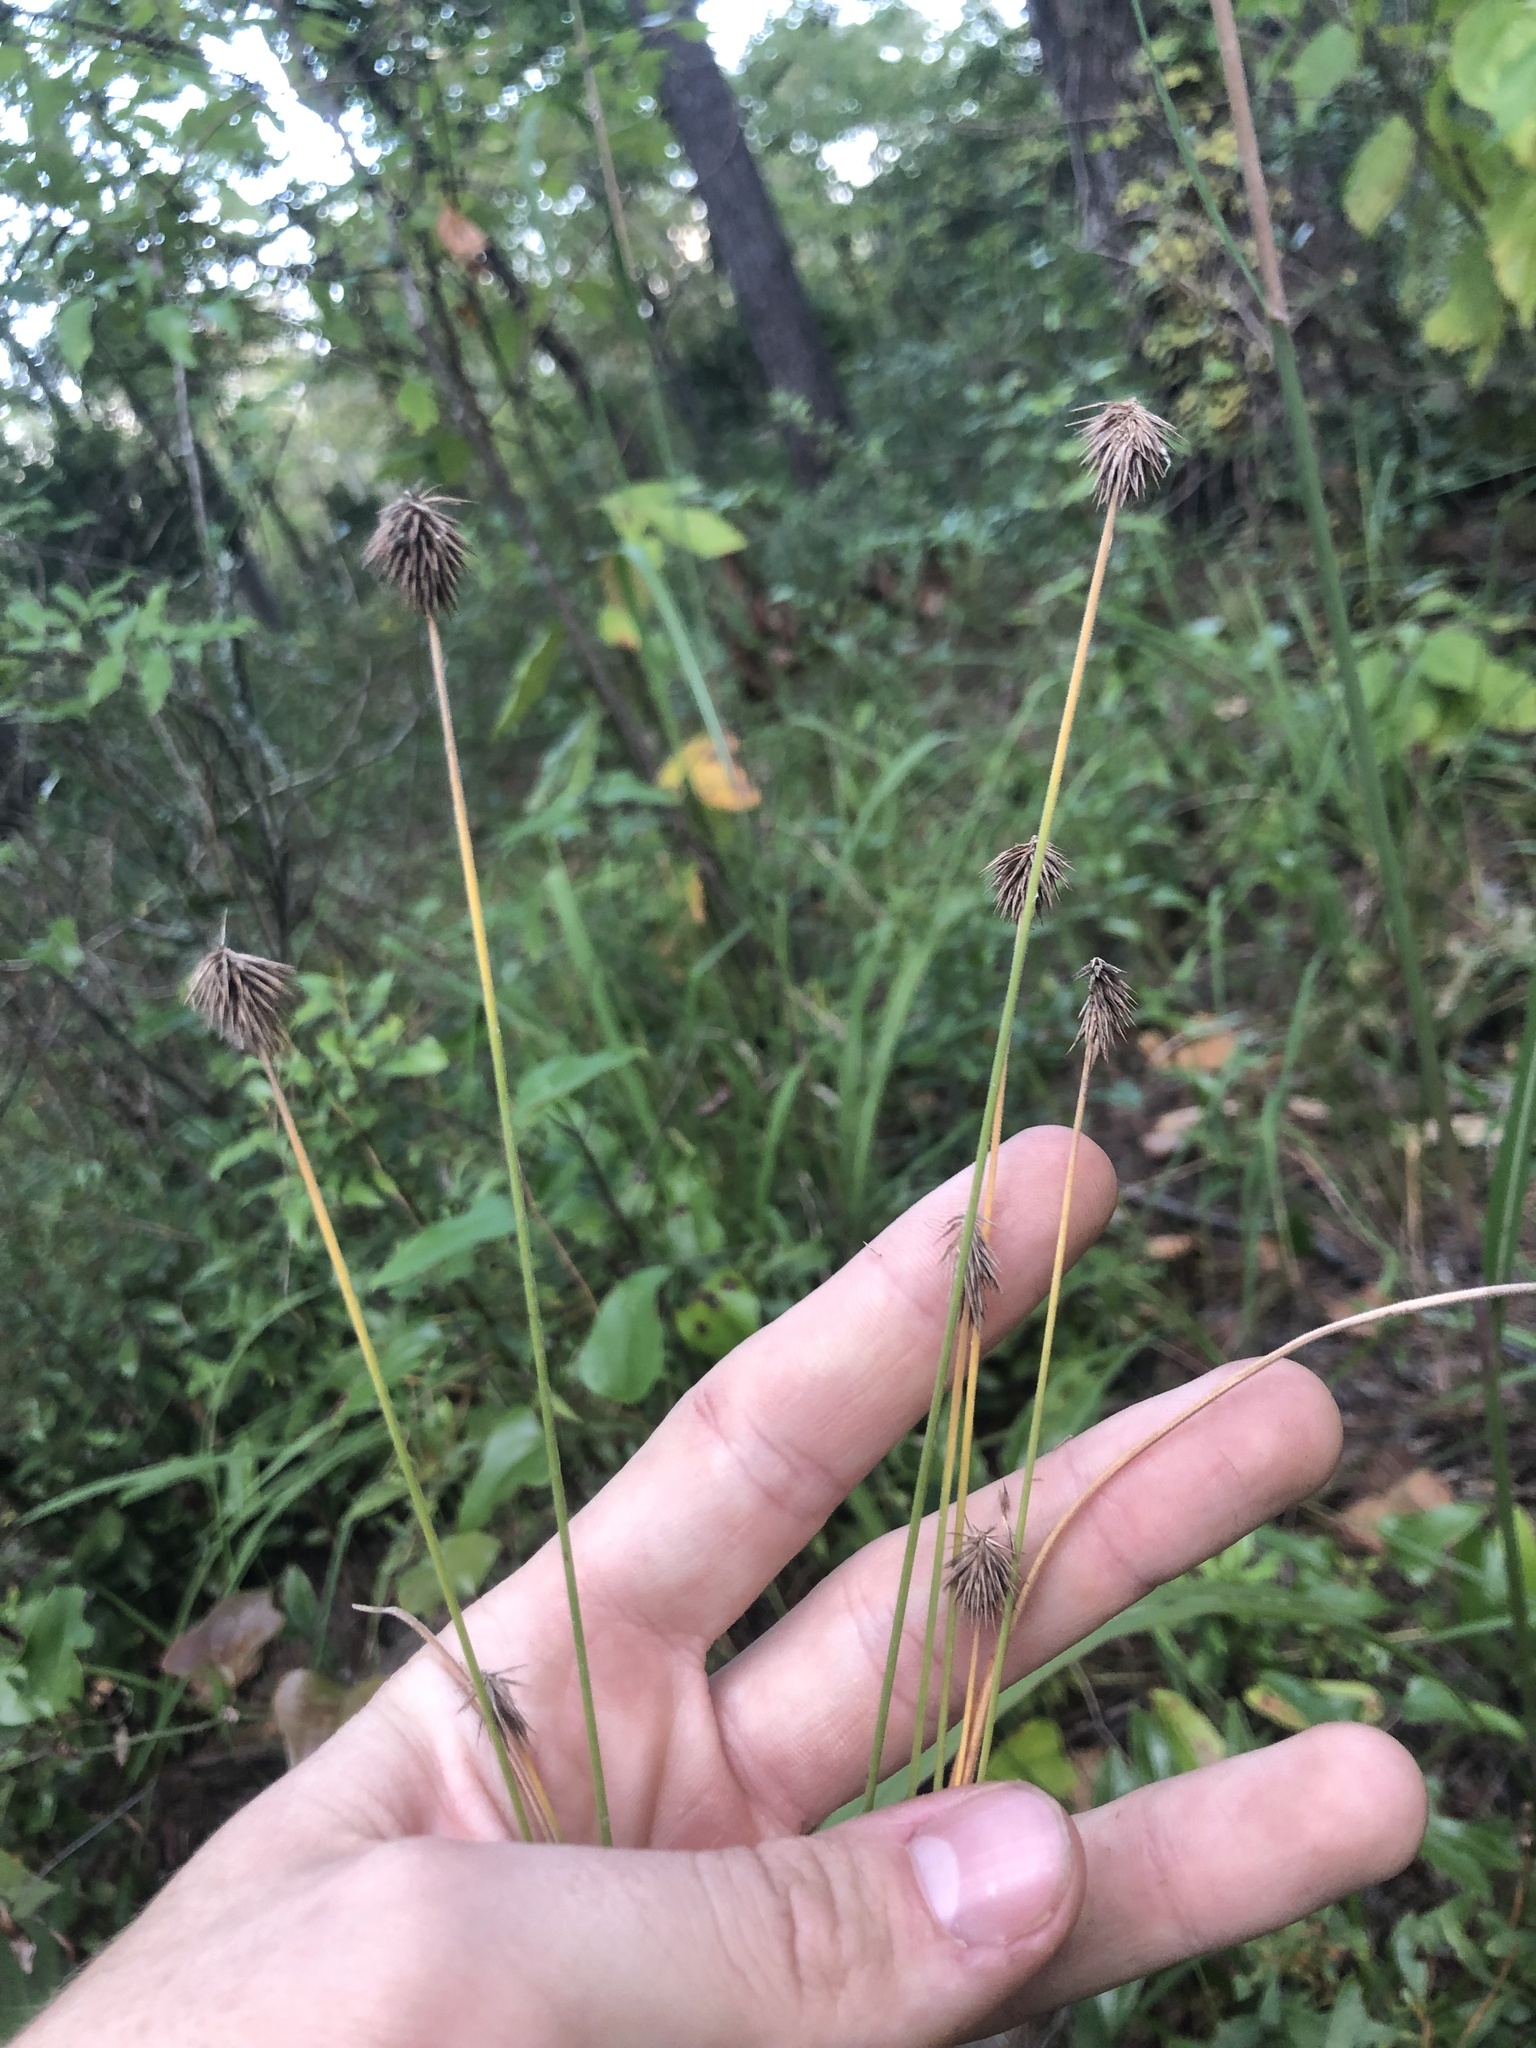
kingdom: Plantae
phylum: Tracheophyta
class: Liliopsida
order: Poales
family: Cyperaceae
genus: Cyperus
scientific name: Cyperus plukenetii
